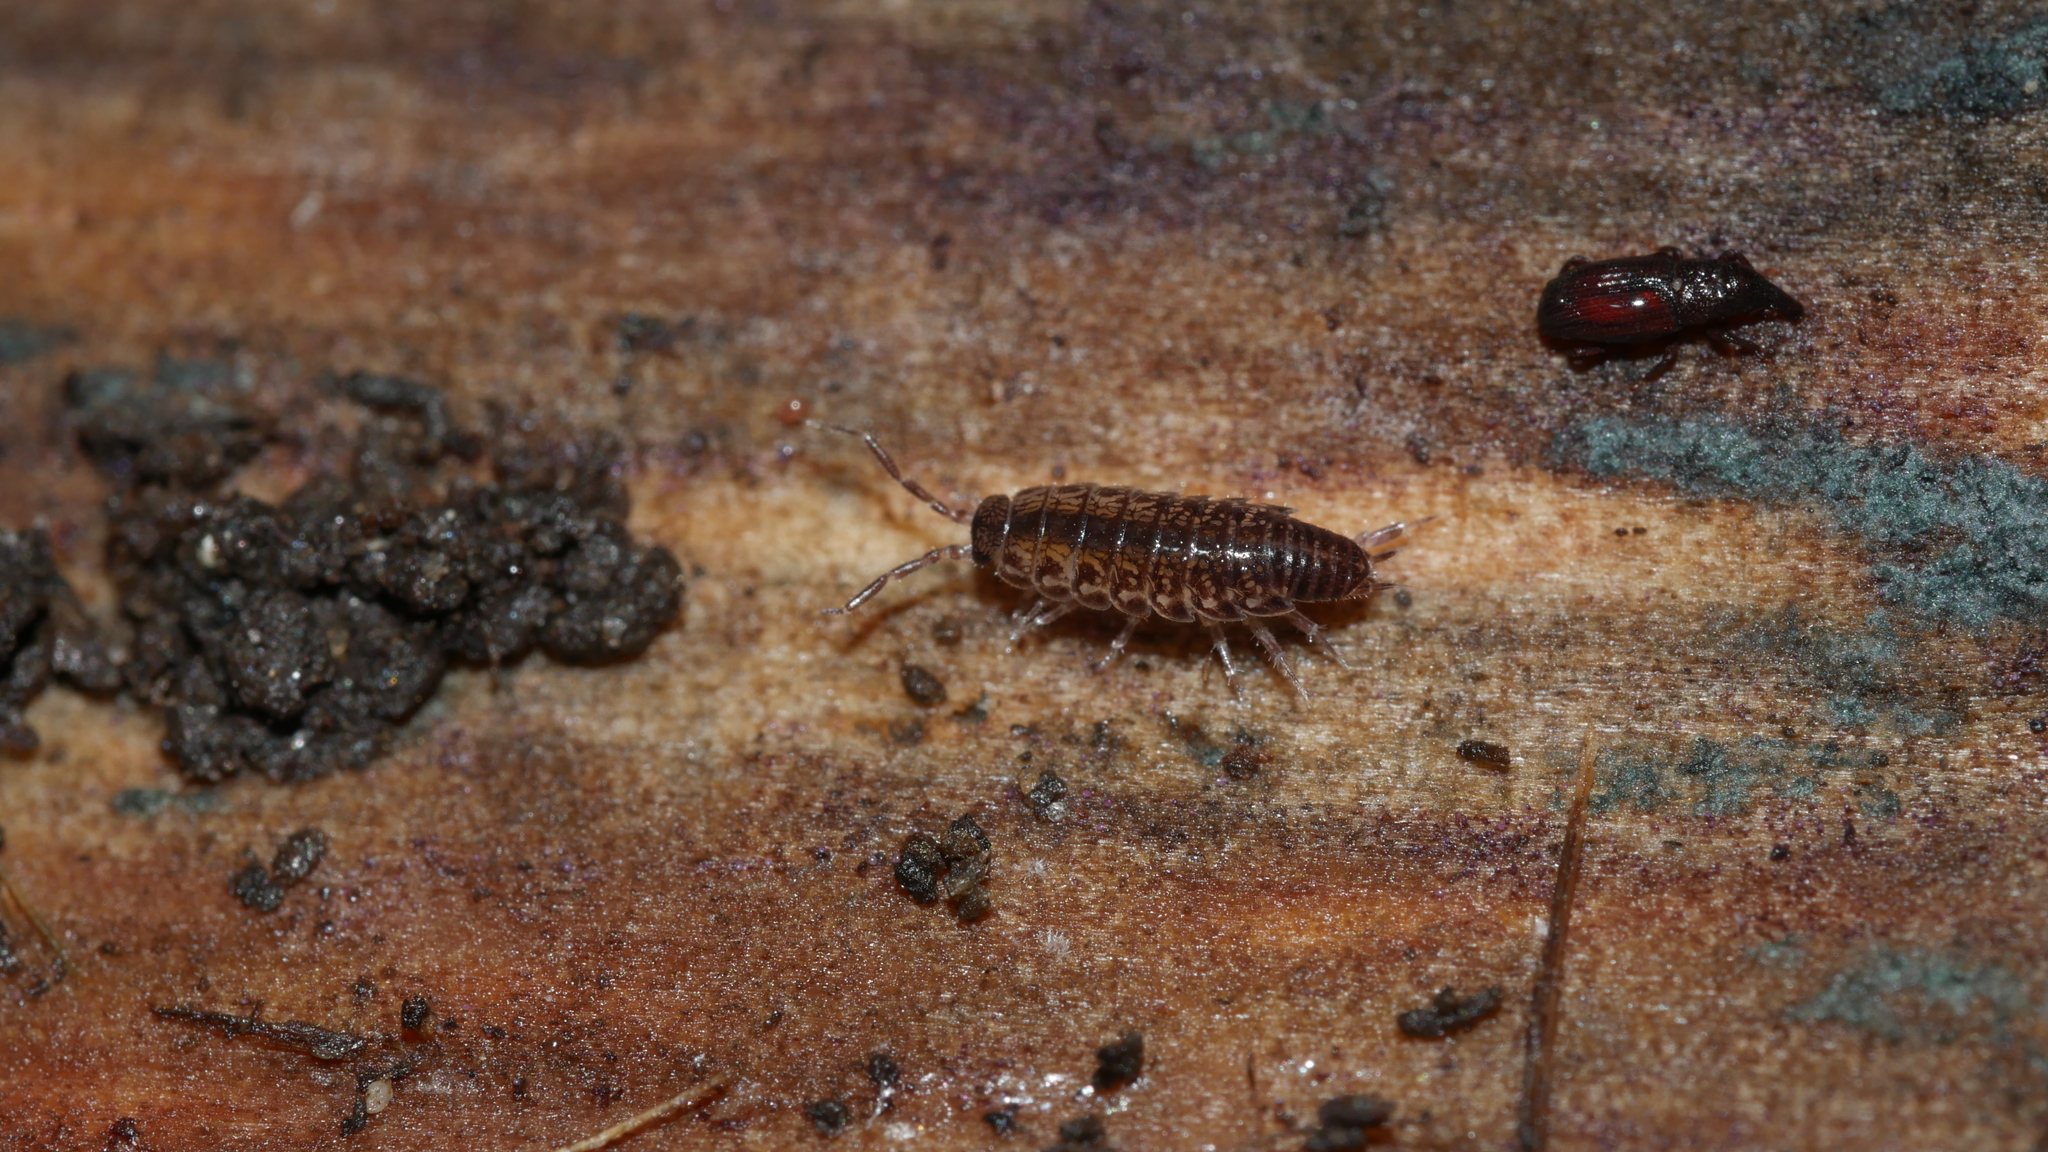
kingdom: Animalia
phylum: Arthropoda
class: Malacostraca
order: Isopoda
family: Philosciidae
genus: Chaetophiloscia
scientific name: Chaetophiloscia sicula
